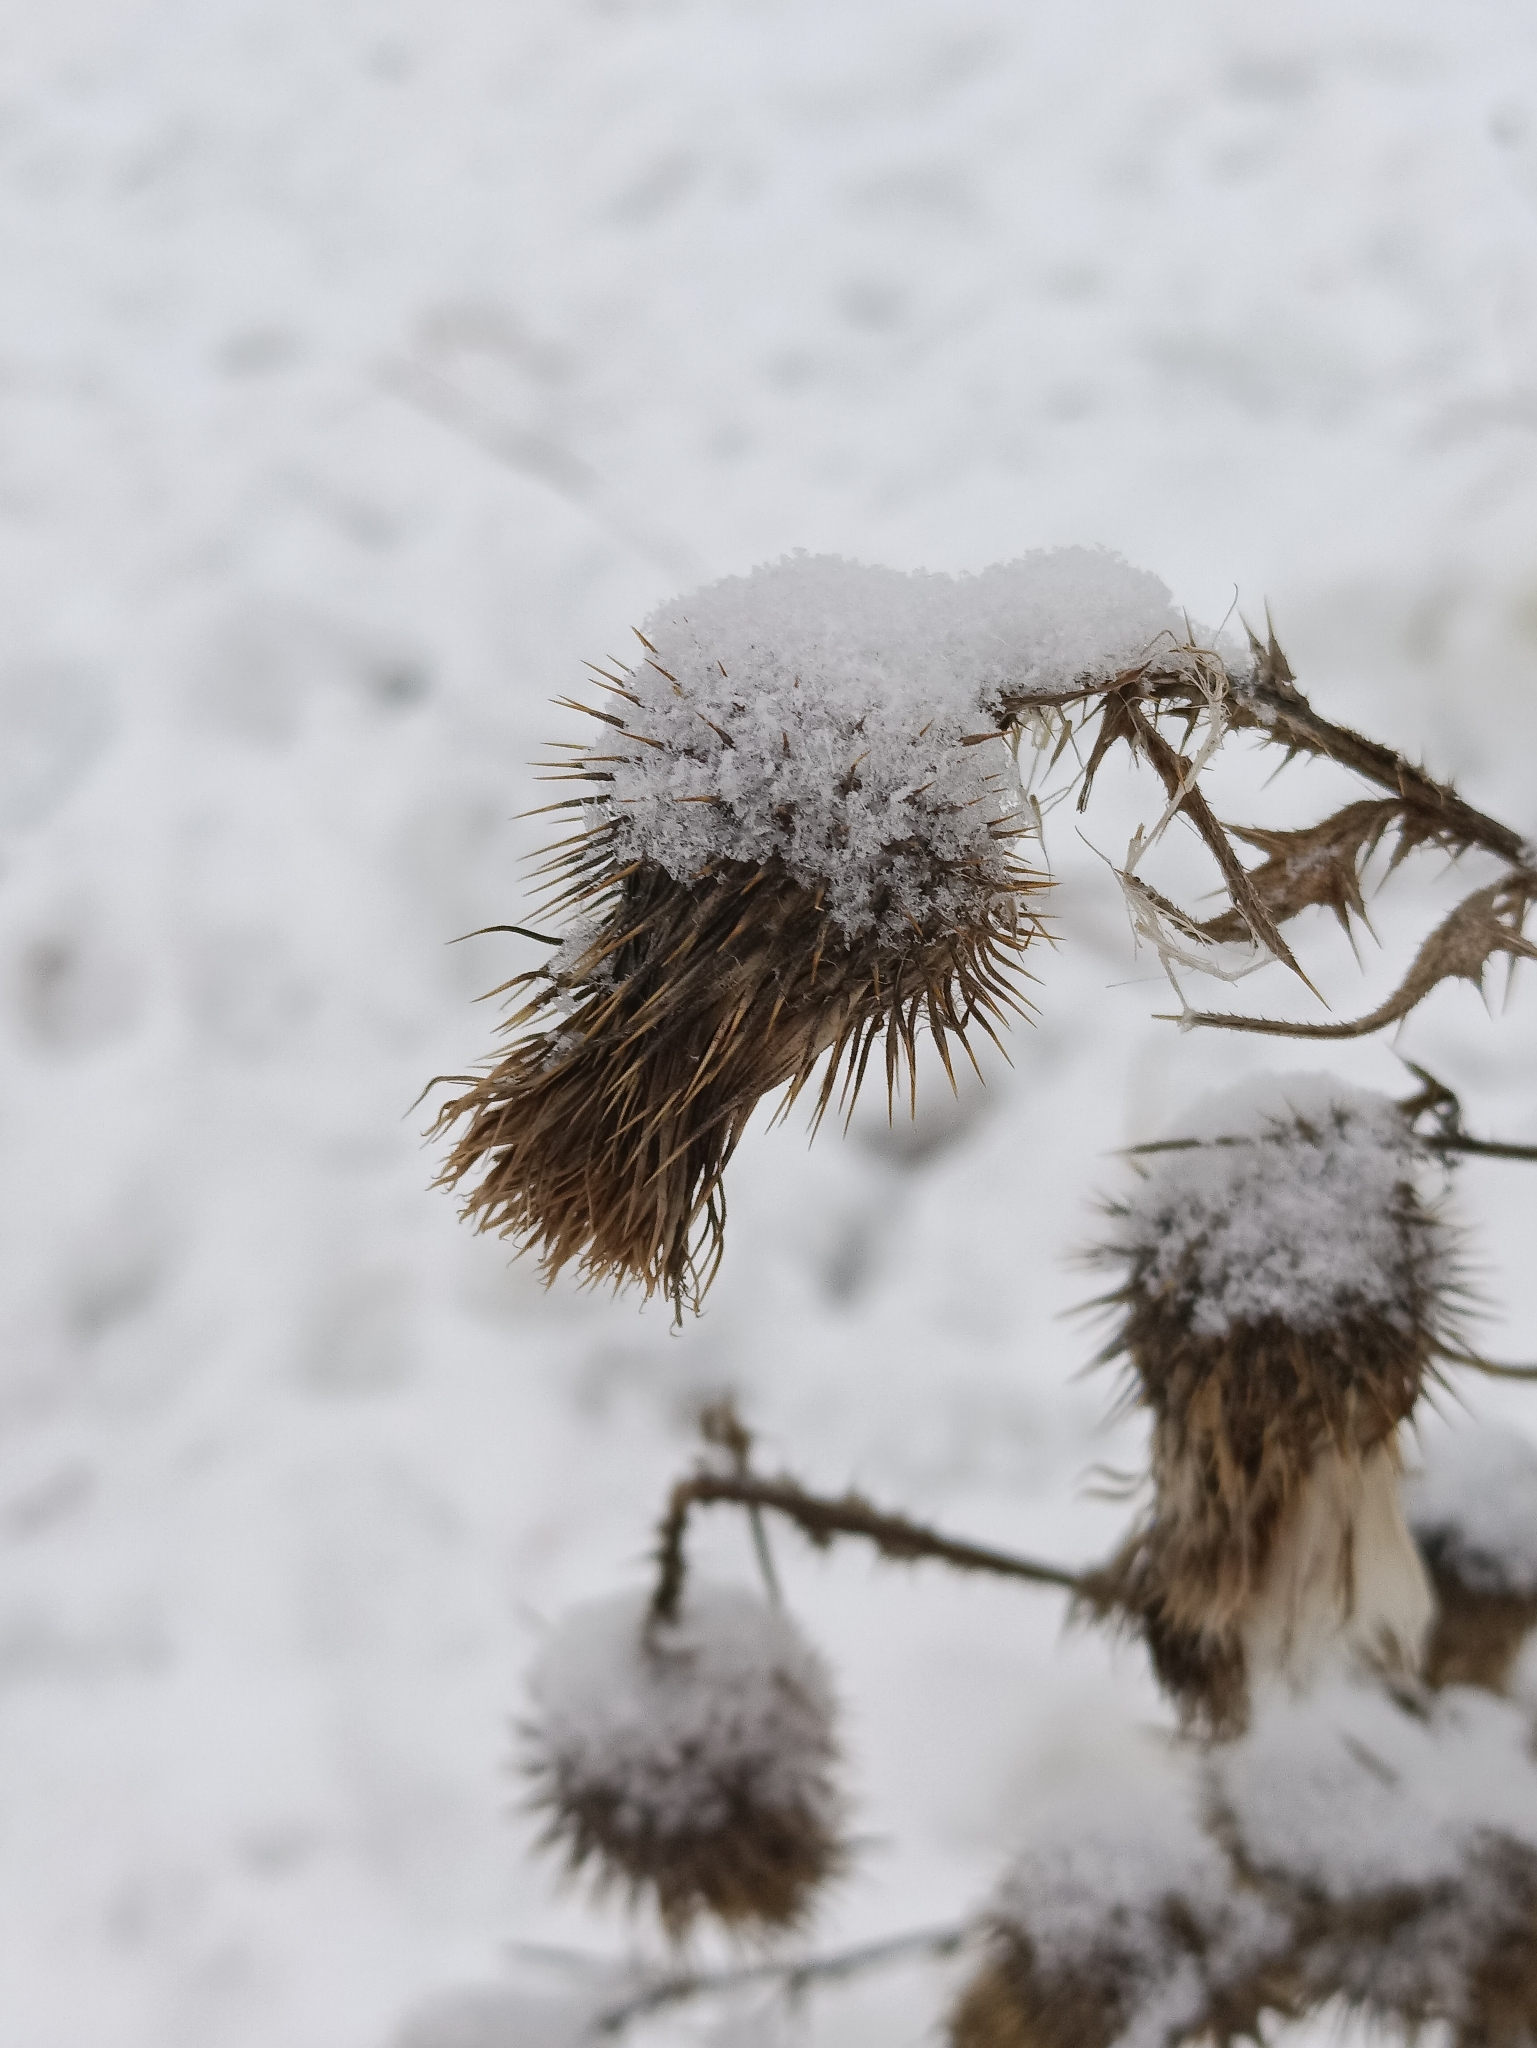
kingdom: Plantae
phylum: Tracheophyta
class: Magnoliopsida
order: Asterales
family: Asteraceae
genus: Cirsium
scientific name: Cirsium vulgare
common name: Bull thistle
